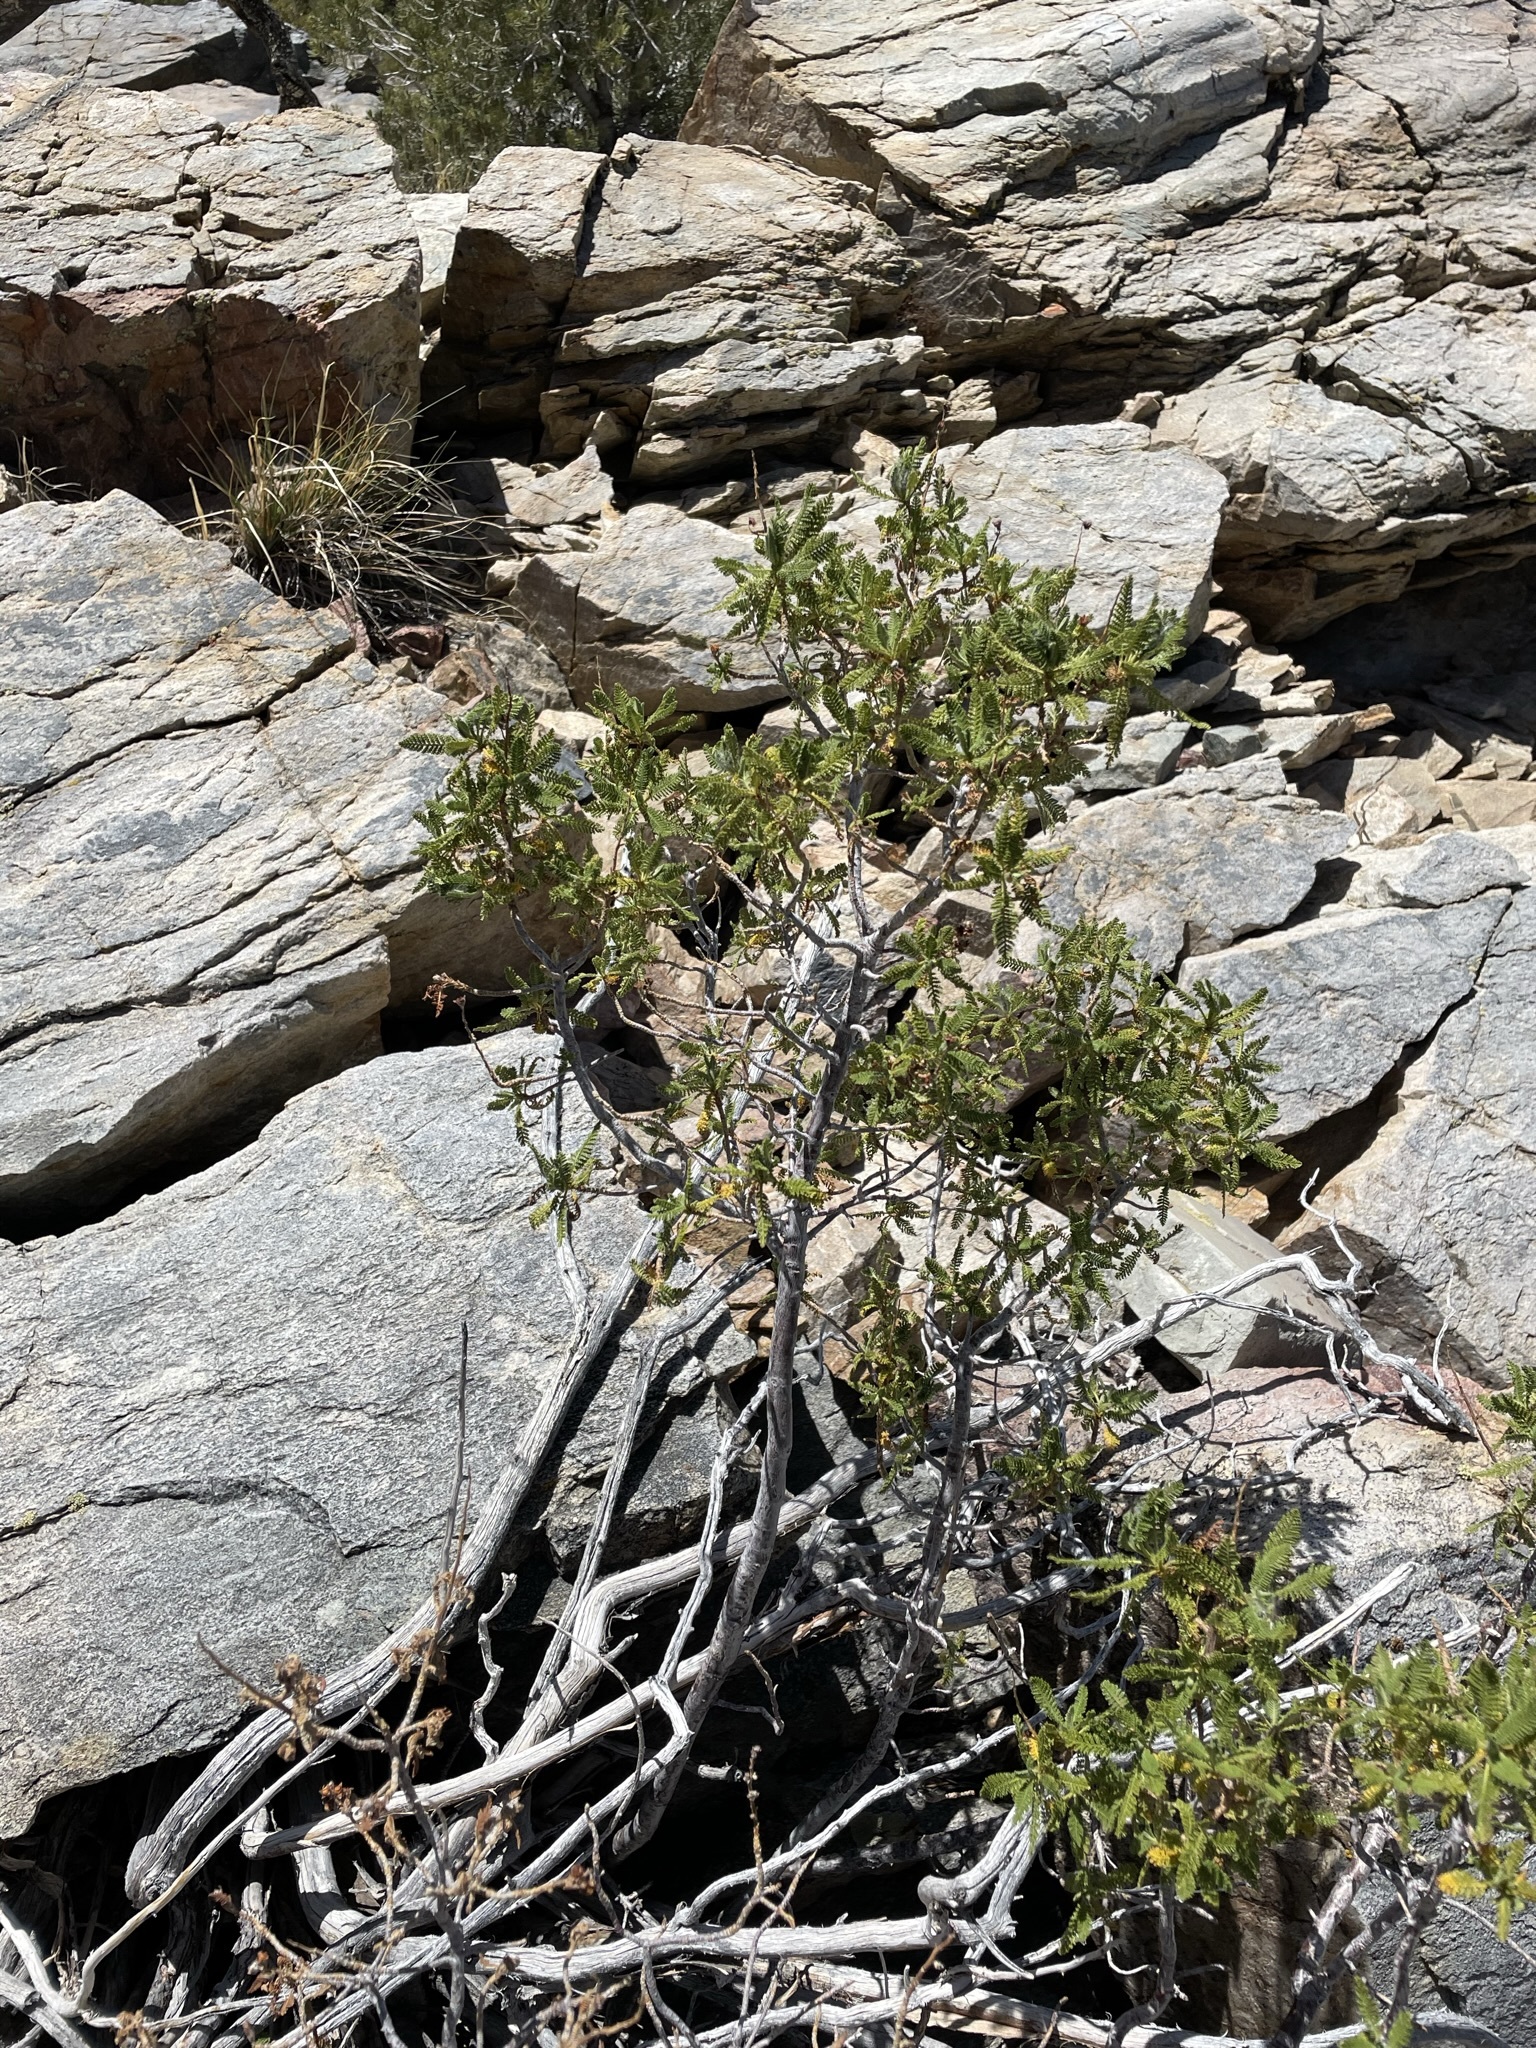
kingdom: Plantae
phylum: Tracheophyta
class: Magnoliopsida
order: Rosales
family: Rosaceae
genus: Chamaebatiaria
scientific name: Chamaebatiaria millefolium
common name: Fernbush
